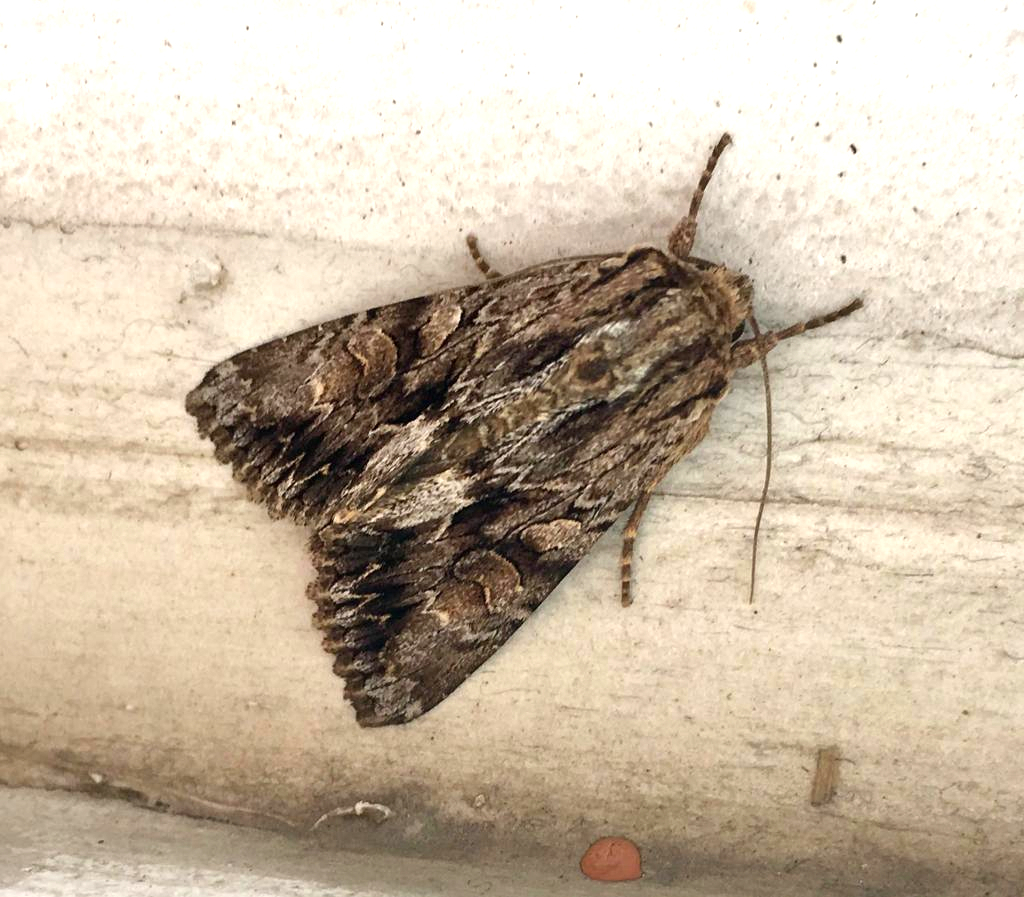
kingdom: Animalia
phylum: Arthropoda
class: Insecta
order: Lepidoptera
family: Noctuidae
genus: Apamea
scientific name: Apamea monoglypha
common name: Dark arches
